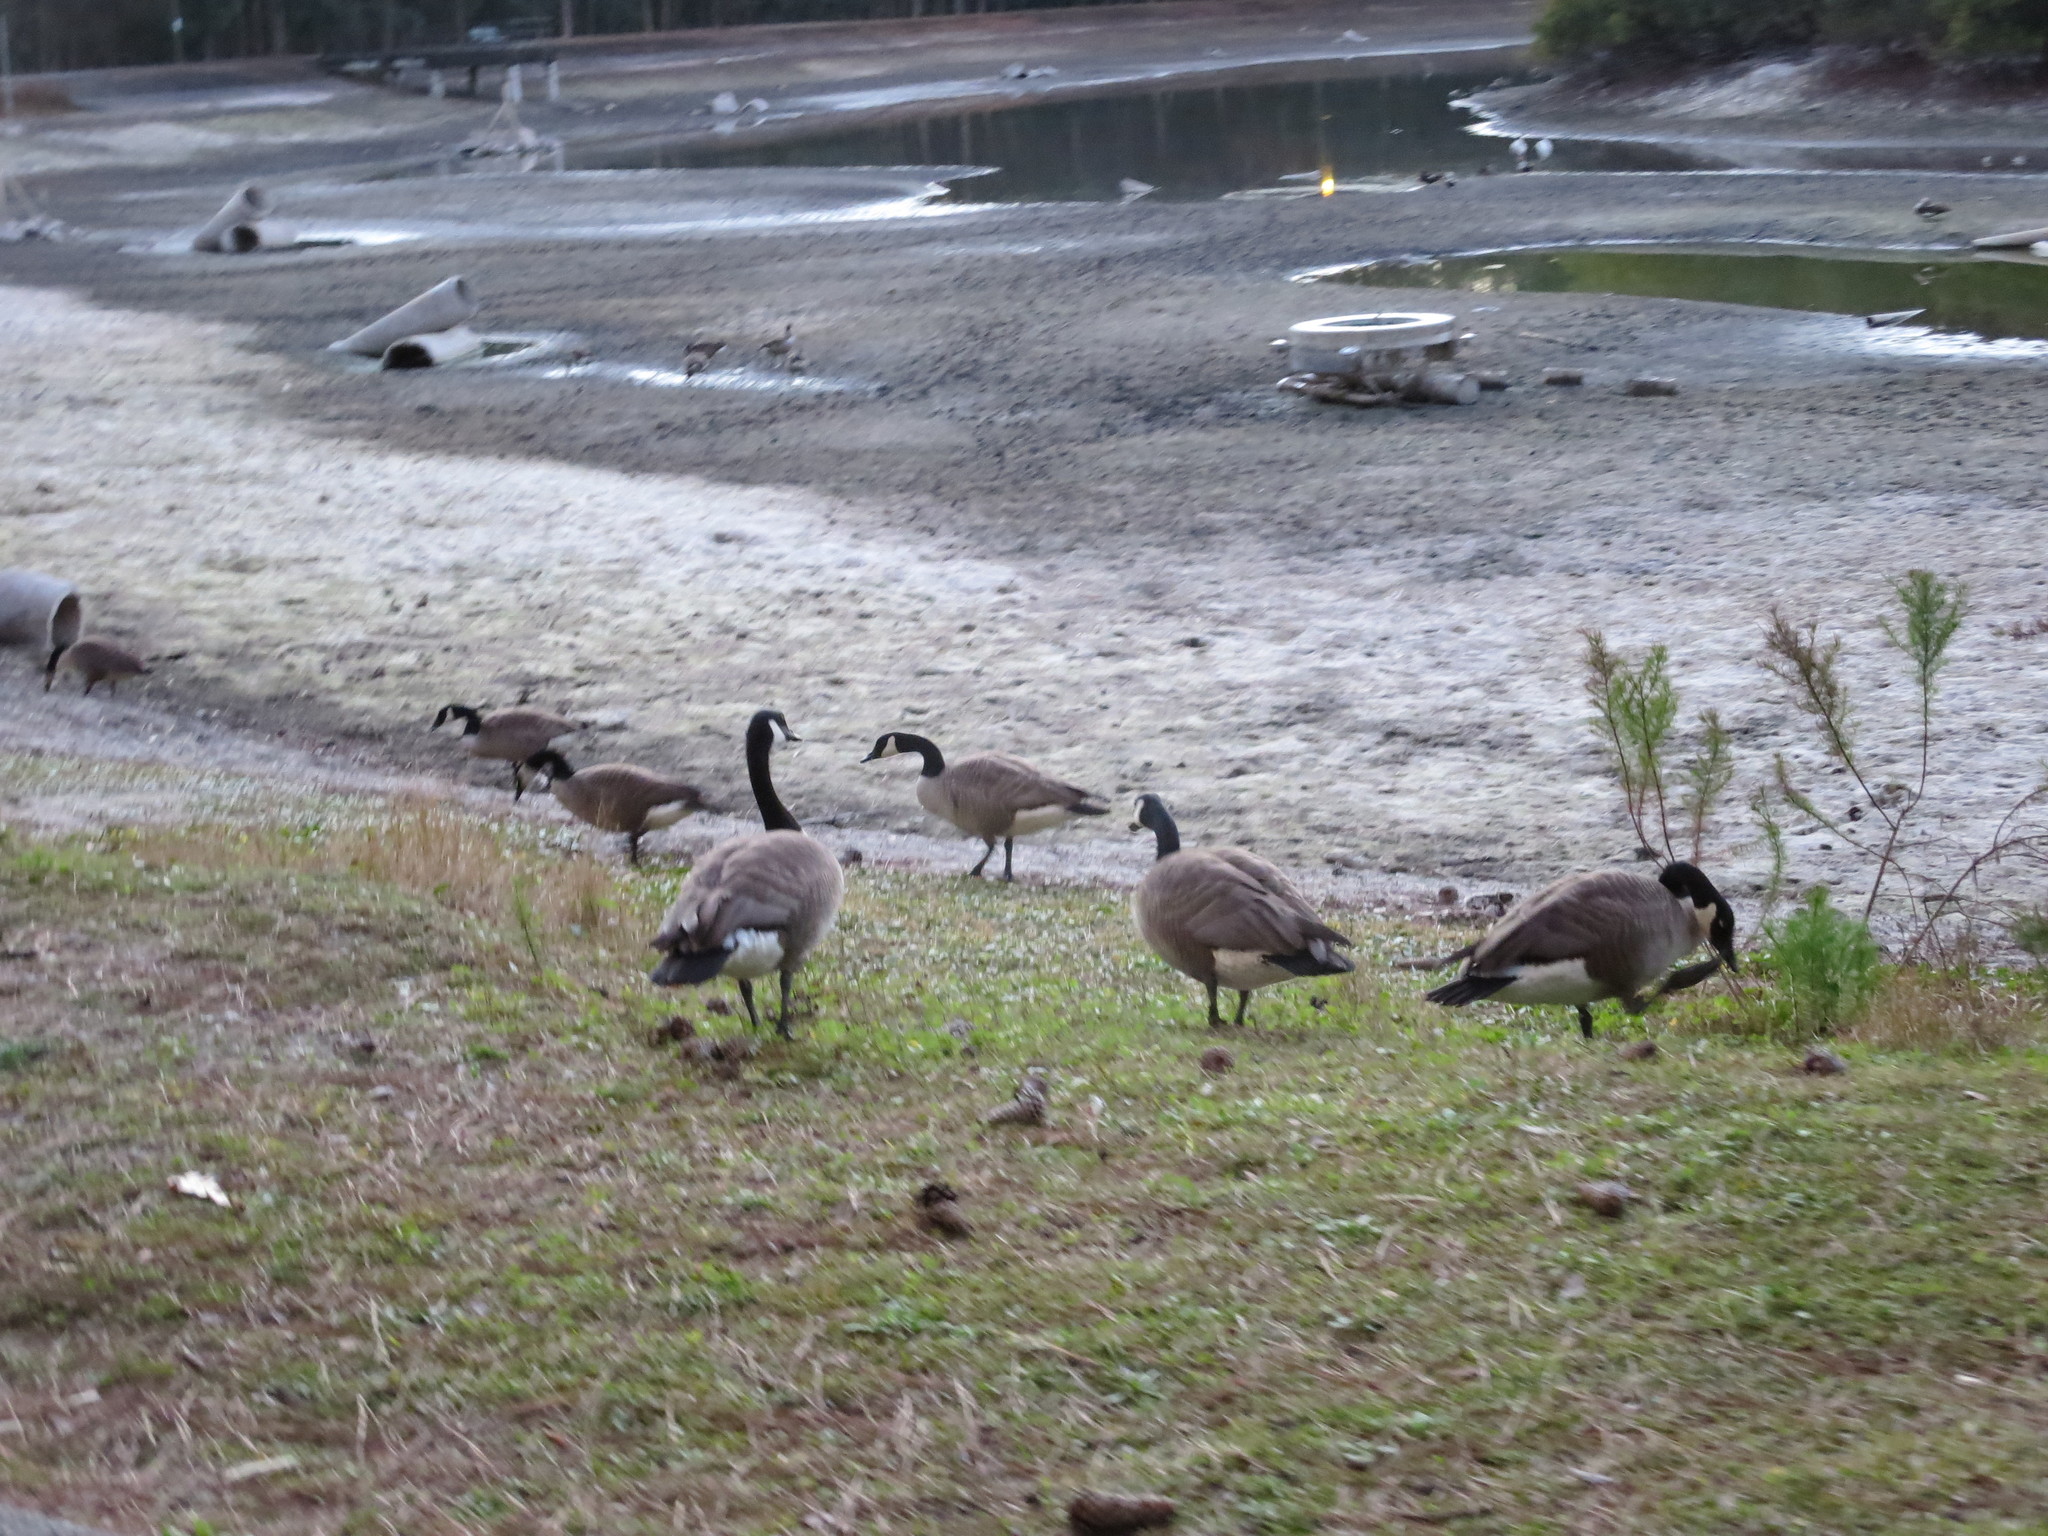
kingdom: Animalia
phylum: Chordata
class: Aves
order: Anseriformes
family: Anatidae
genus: Branta
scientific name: Branta canadensis
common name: Canada goose
